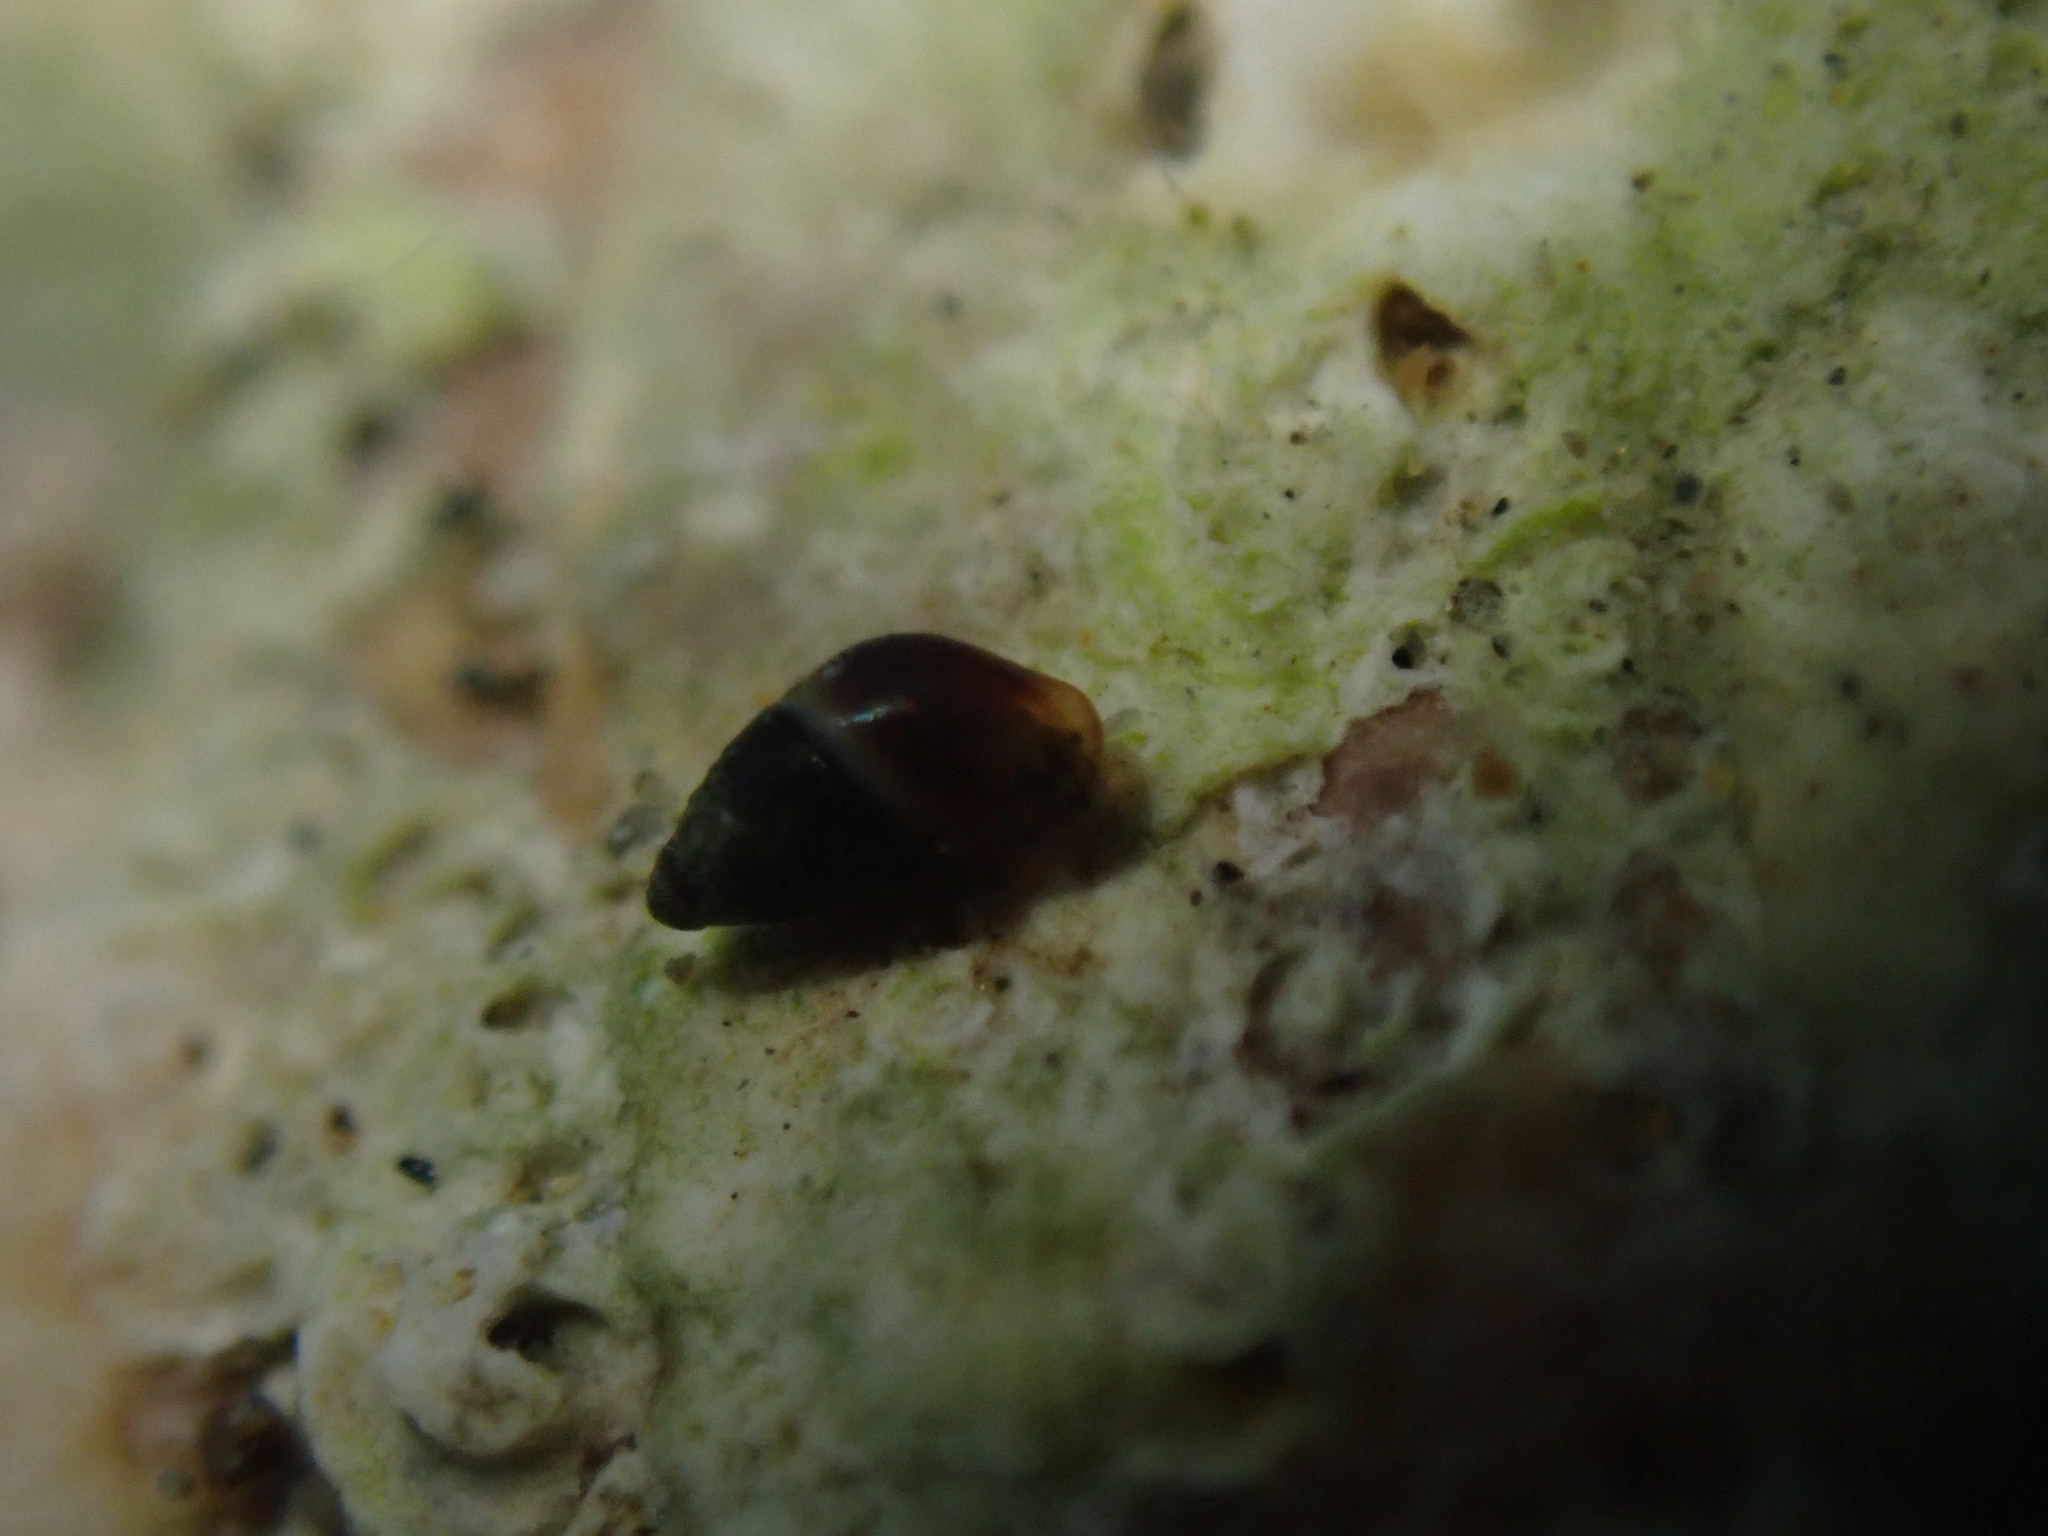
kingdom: Animalia
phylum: Mollusca
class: Gastropoda
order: Littorinimorpha
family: Anabathridae
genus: Pisinna
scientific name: Pisinna
